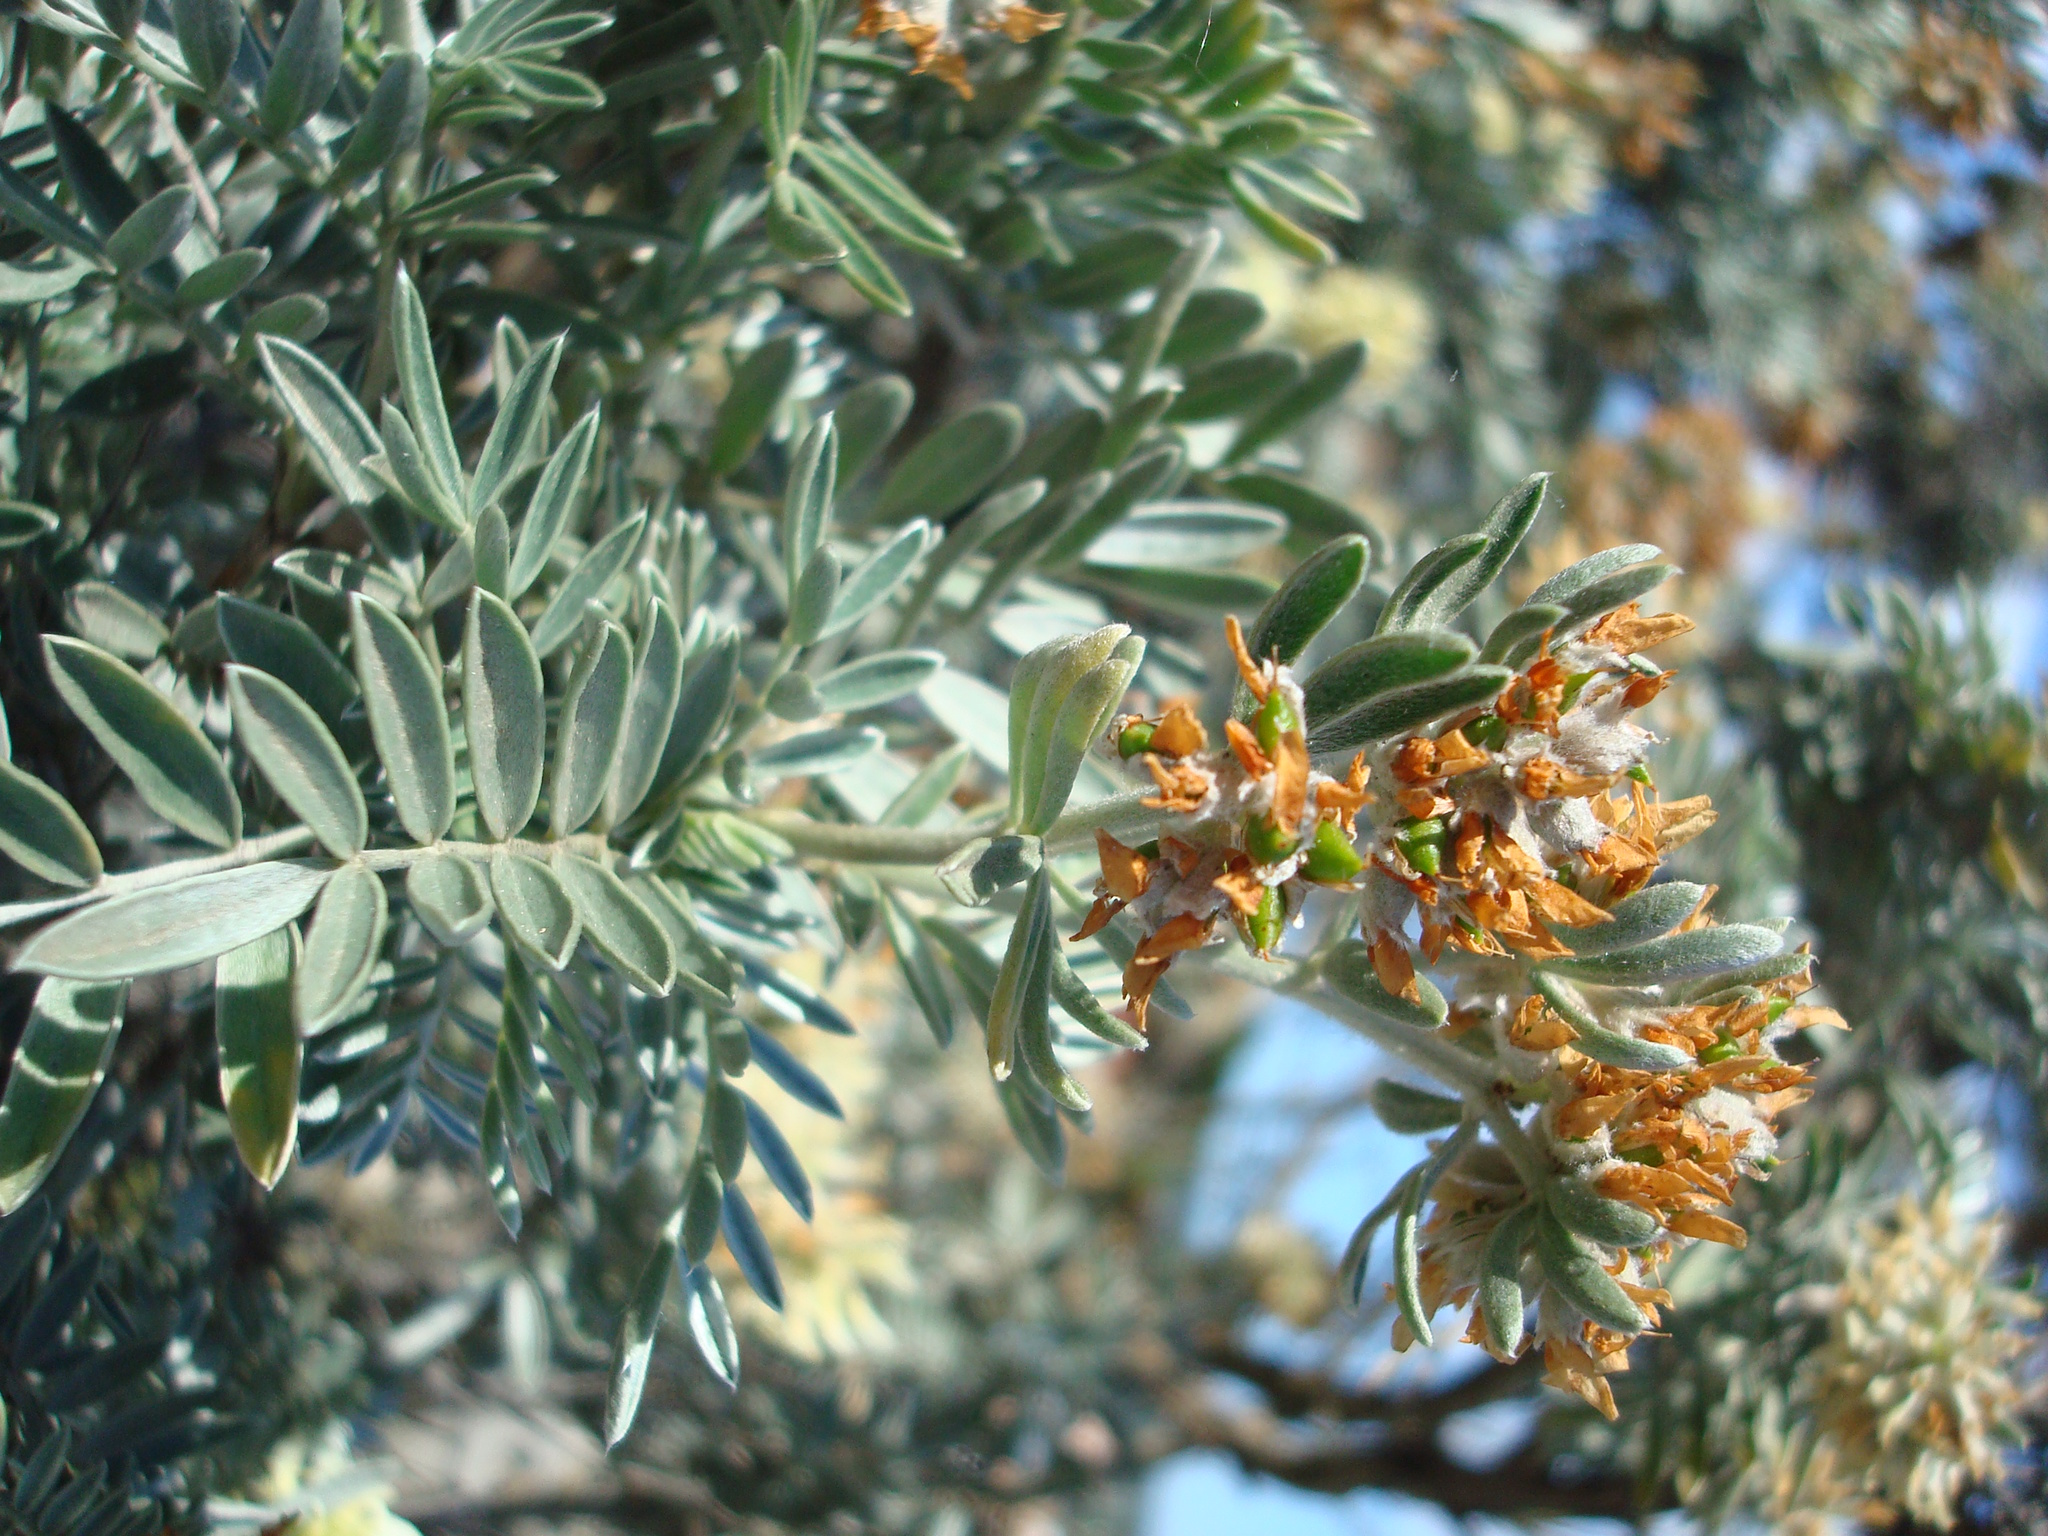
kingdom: Plantae
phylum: Tracheophyta
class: Magnoliopsida
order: Fabales
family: Fabaceae
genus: Anthyllis
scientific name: Anthyllis barba-jovis
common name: Jupiter's-beard
